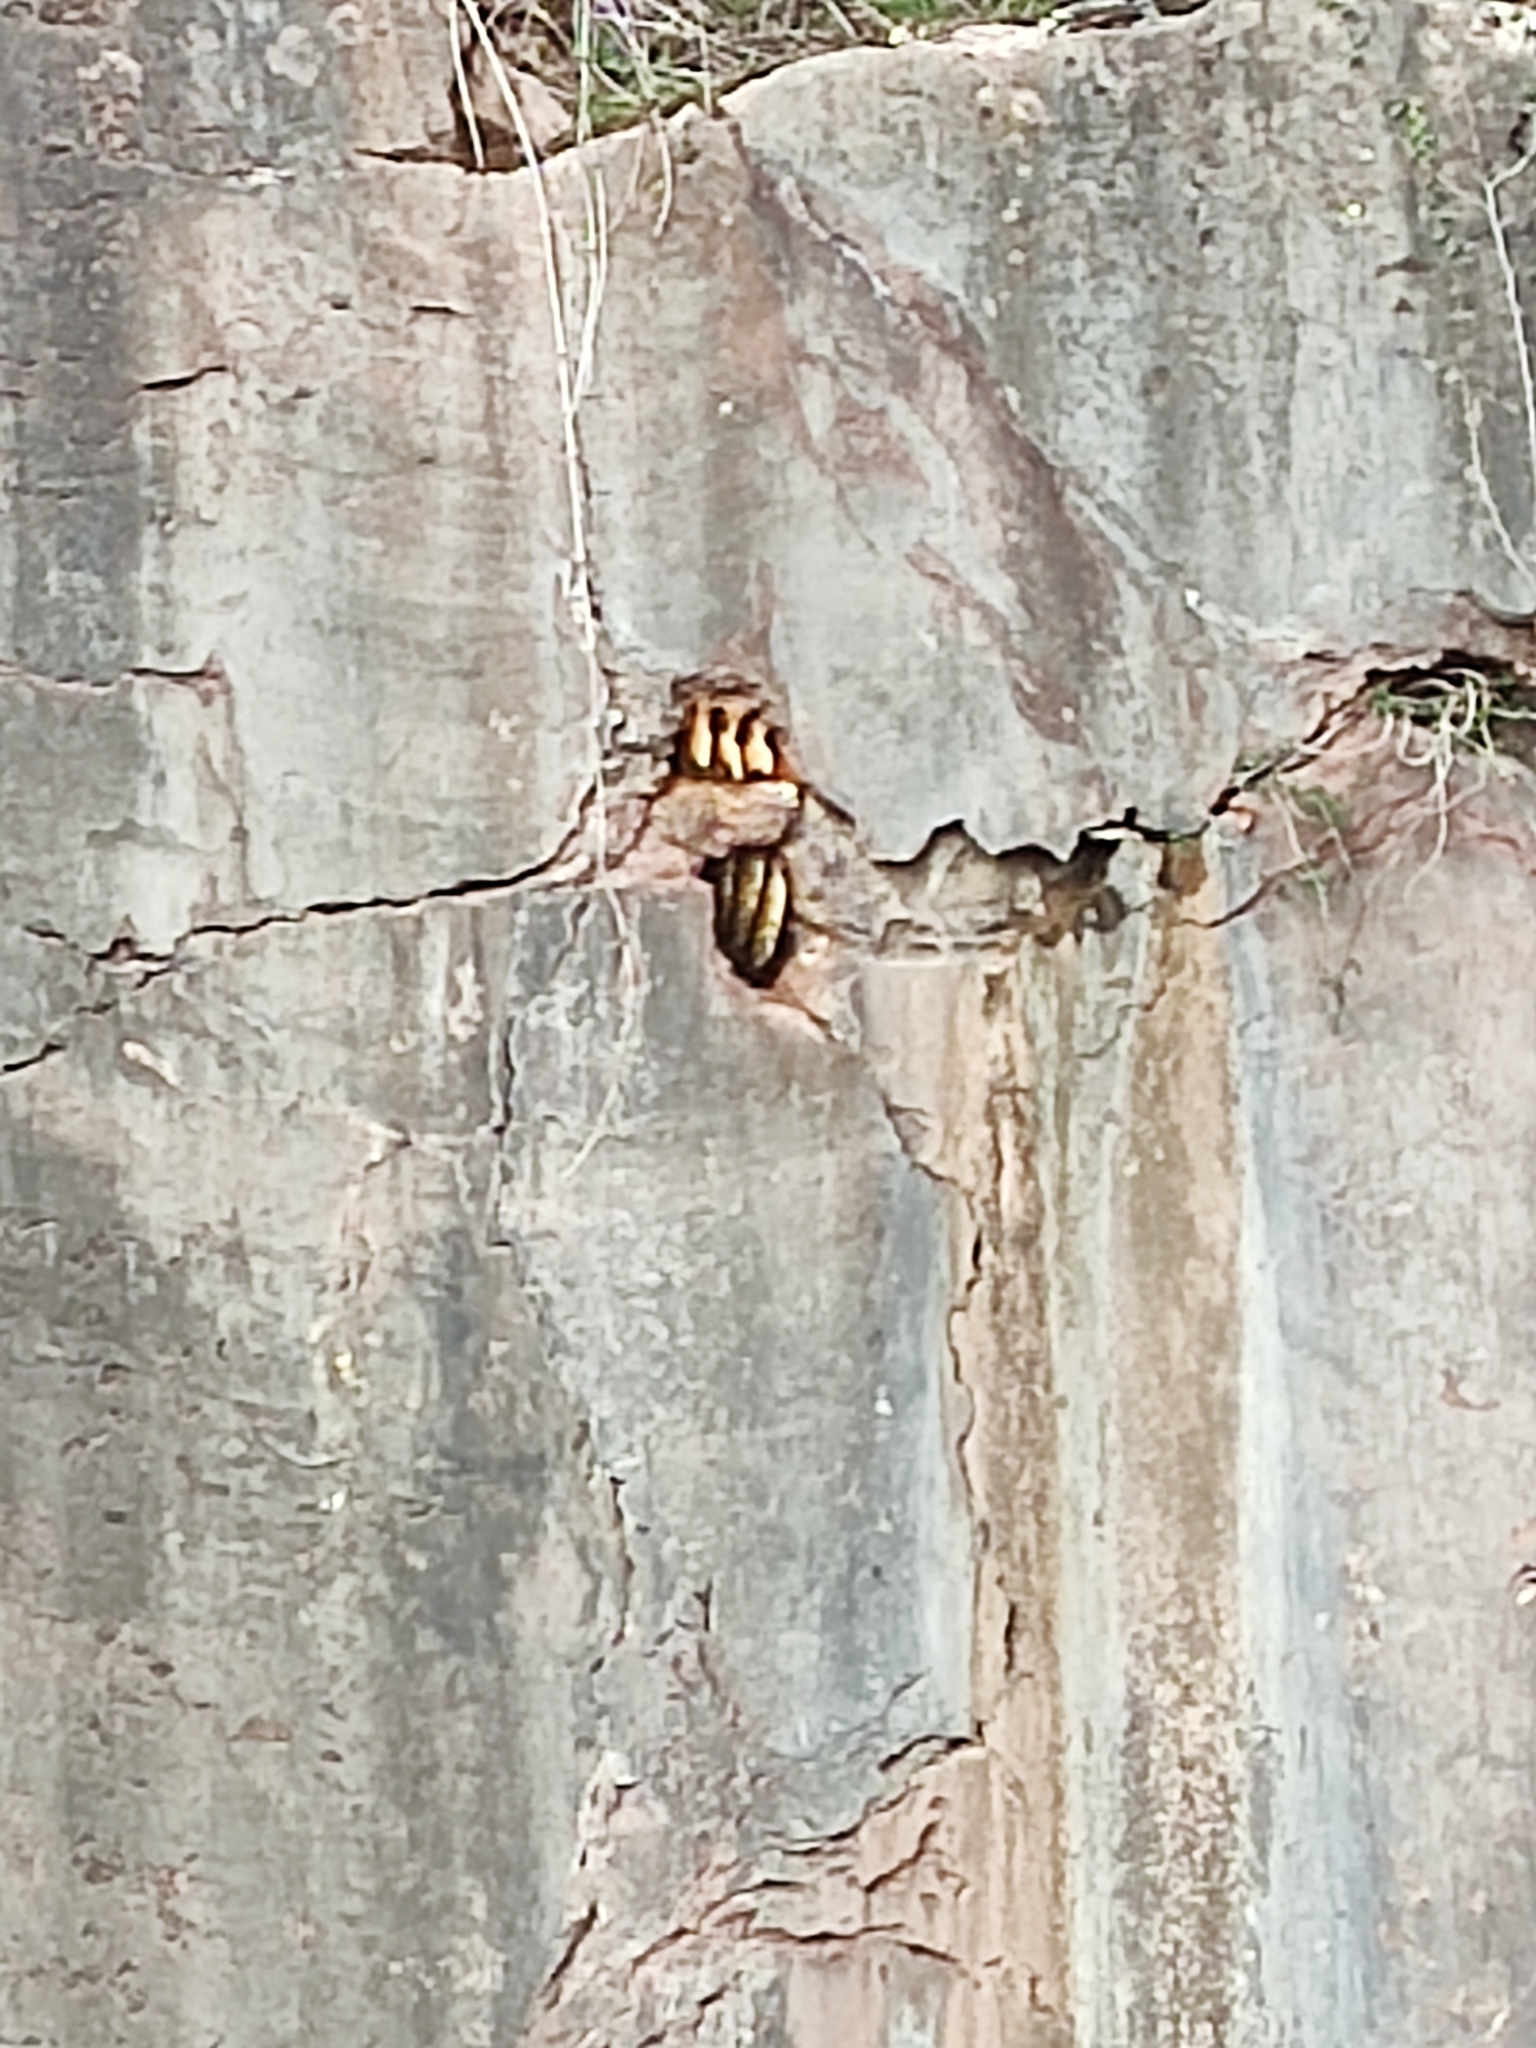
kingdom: Animalia
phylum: Arthropoda
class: Insecta
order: Hymenoptera
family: Apidae
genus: Apis
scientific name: Apis mellifera
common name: Honey bee
